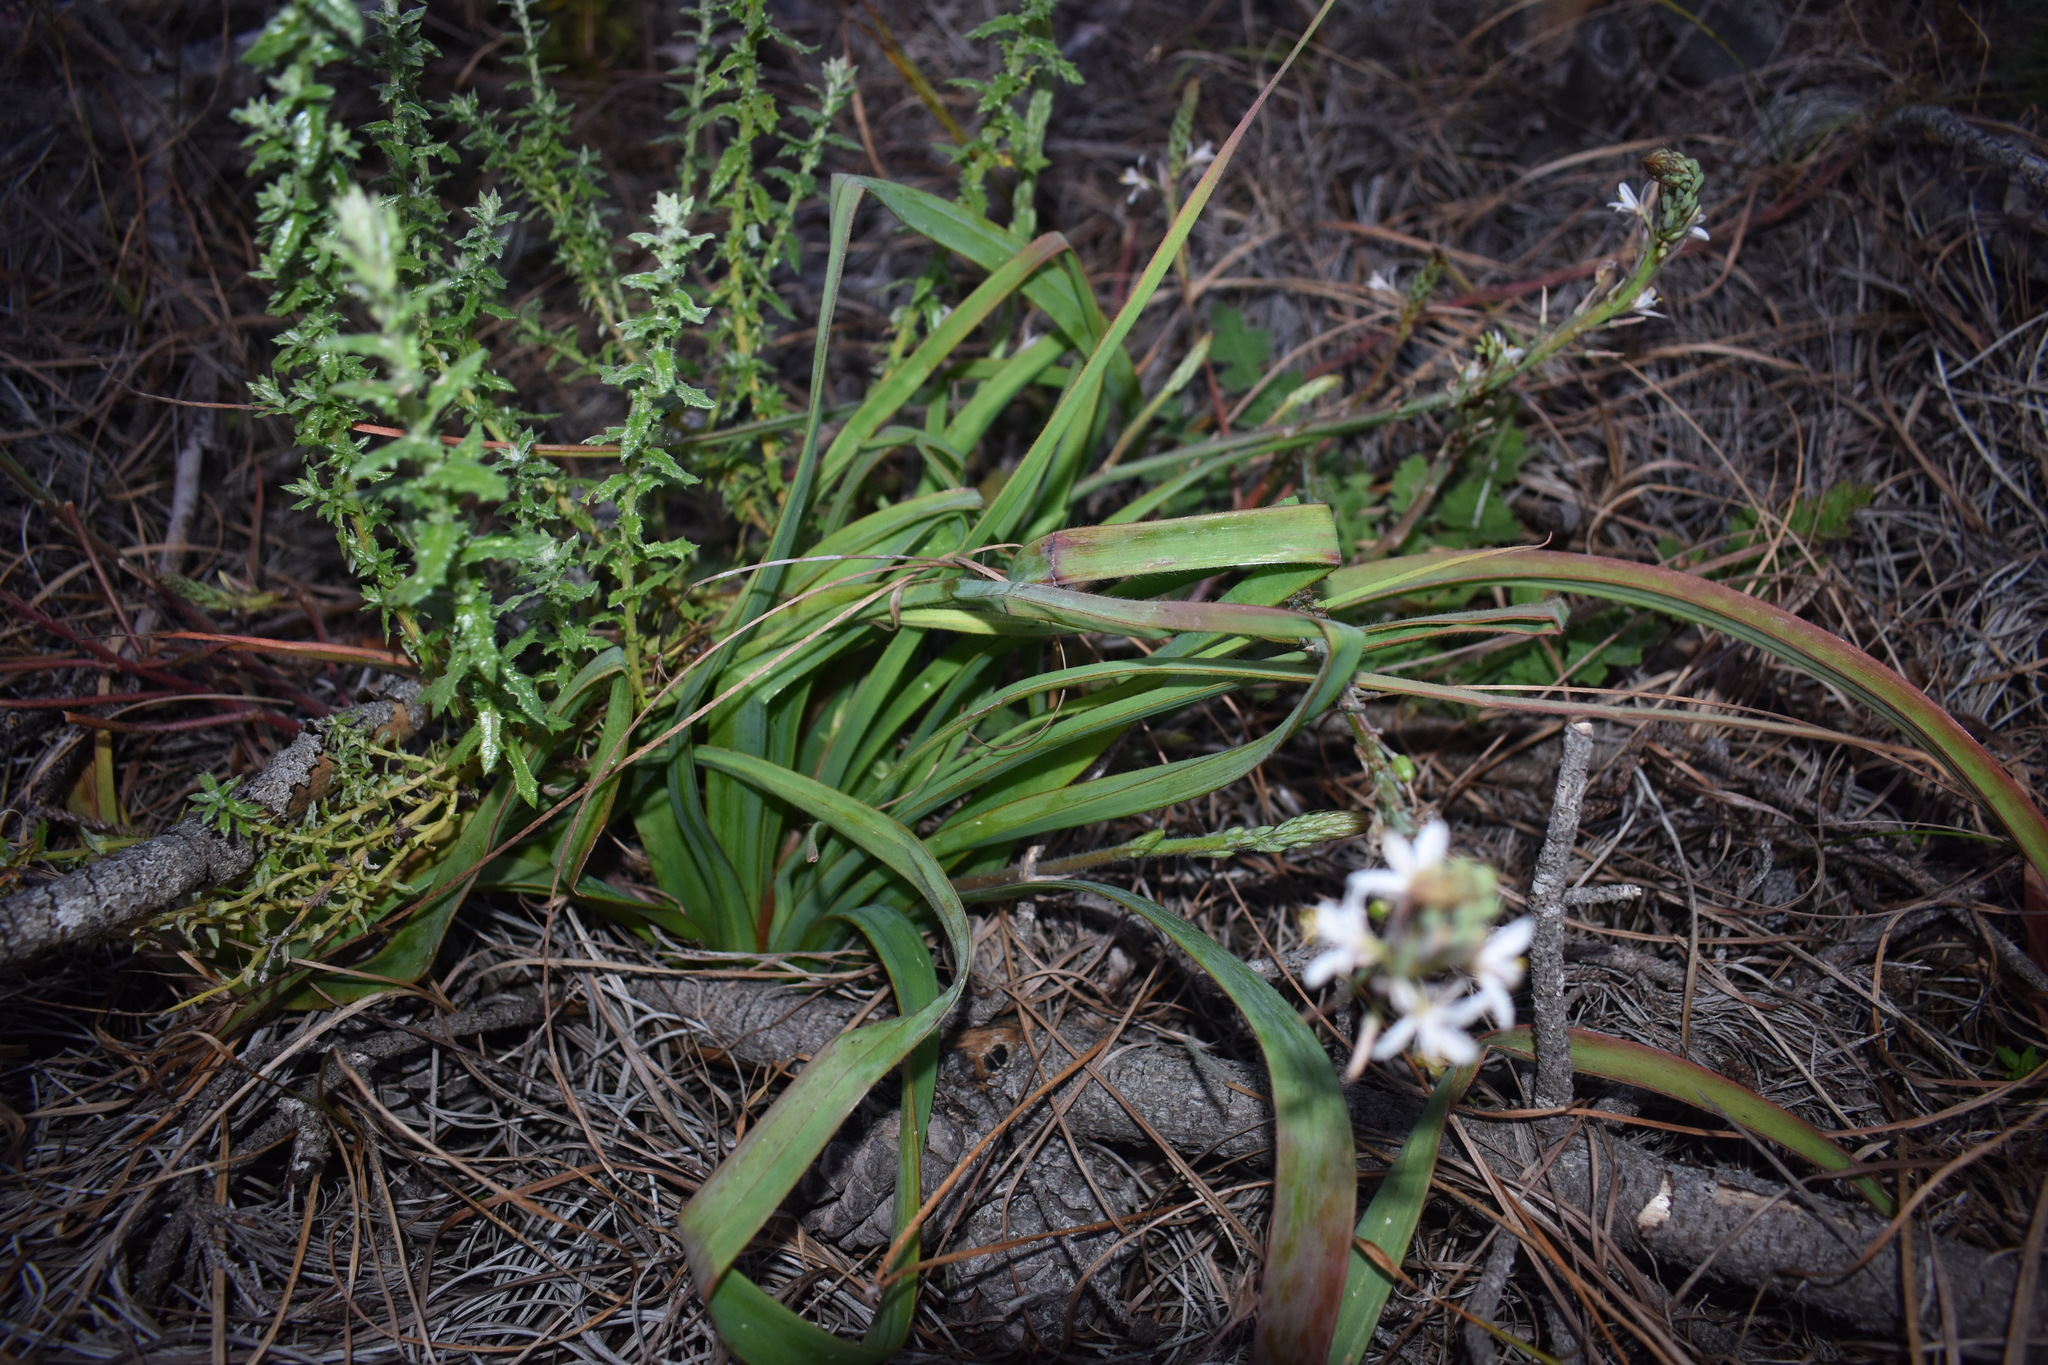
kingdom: Plantae
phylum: Tracheophyta
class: Liliopsida
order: Asparagales
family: Asphodelaceae
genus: Trachyandra
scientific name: Trachyandra ciliata
